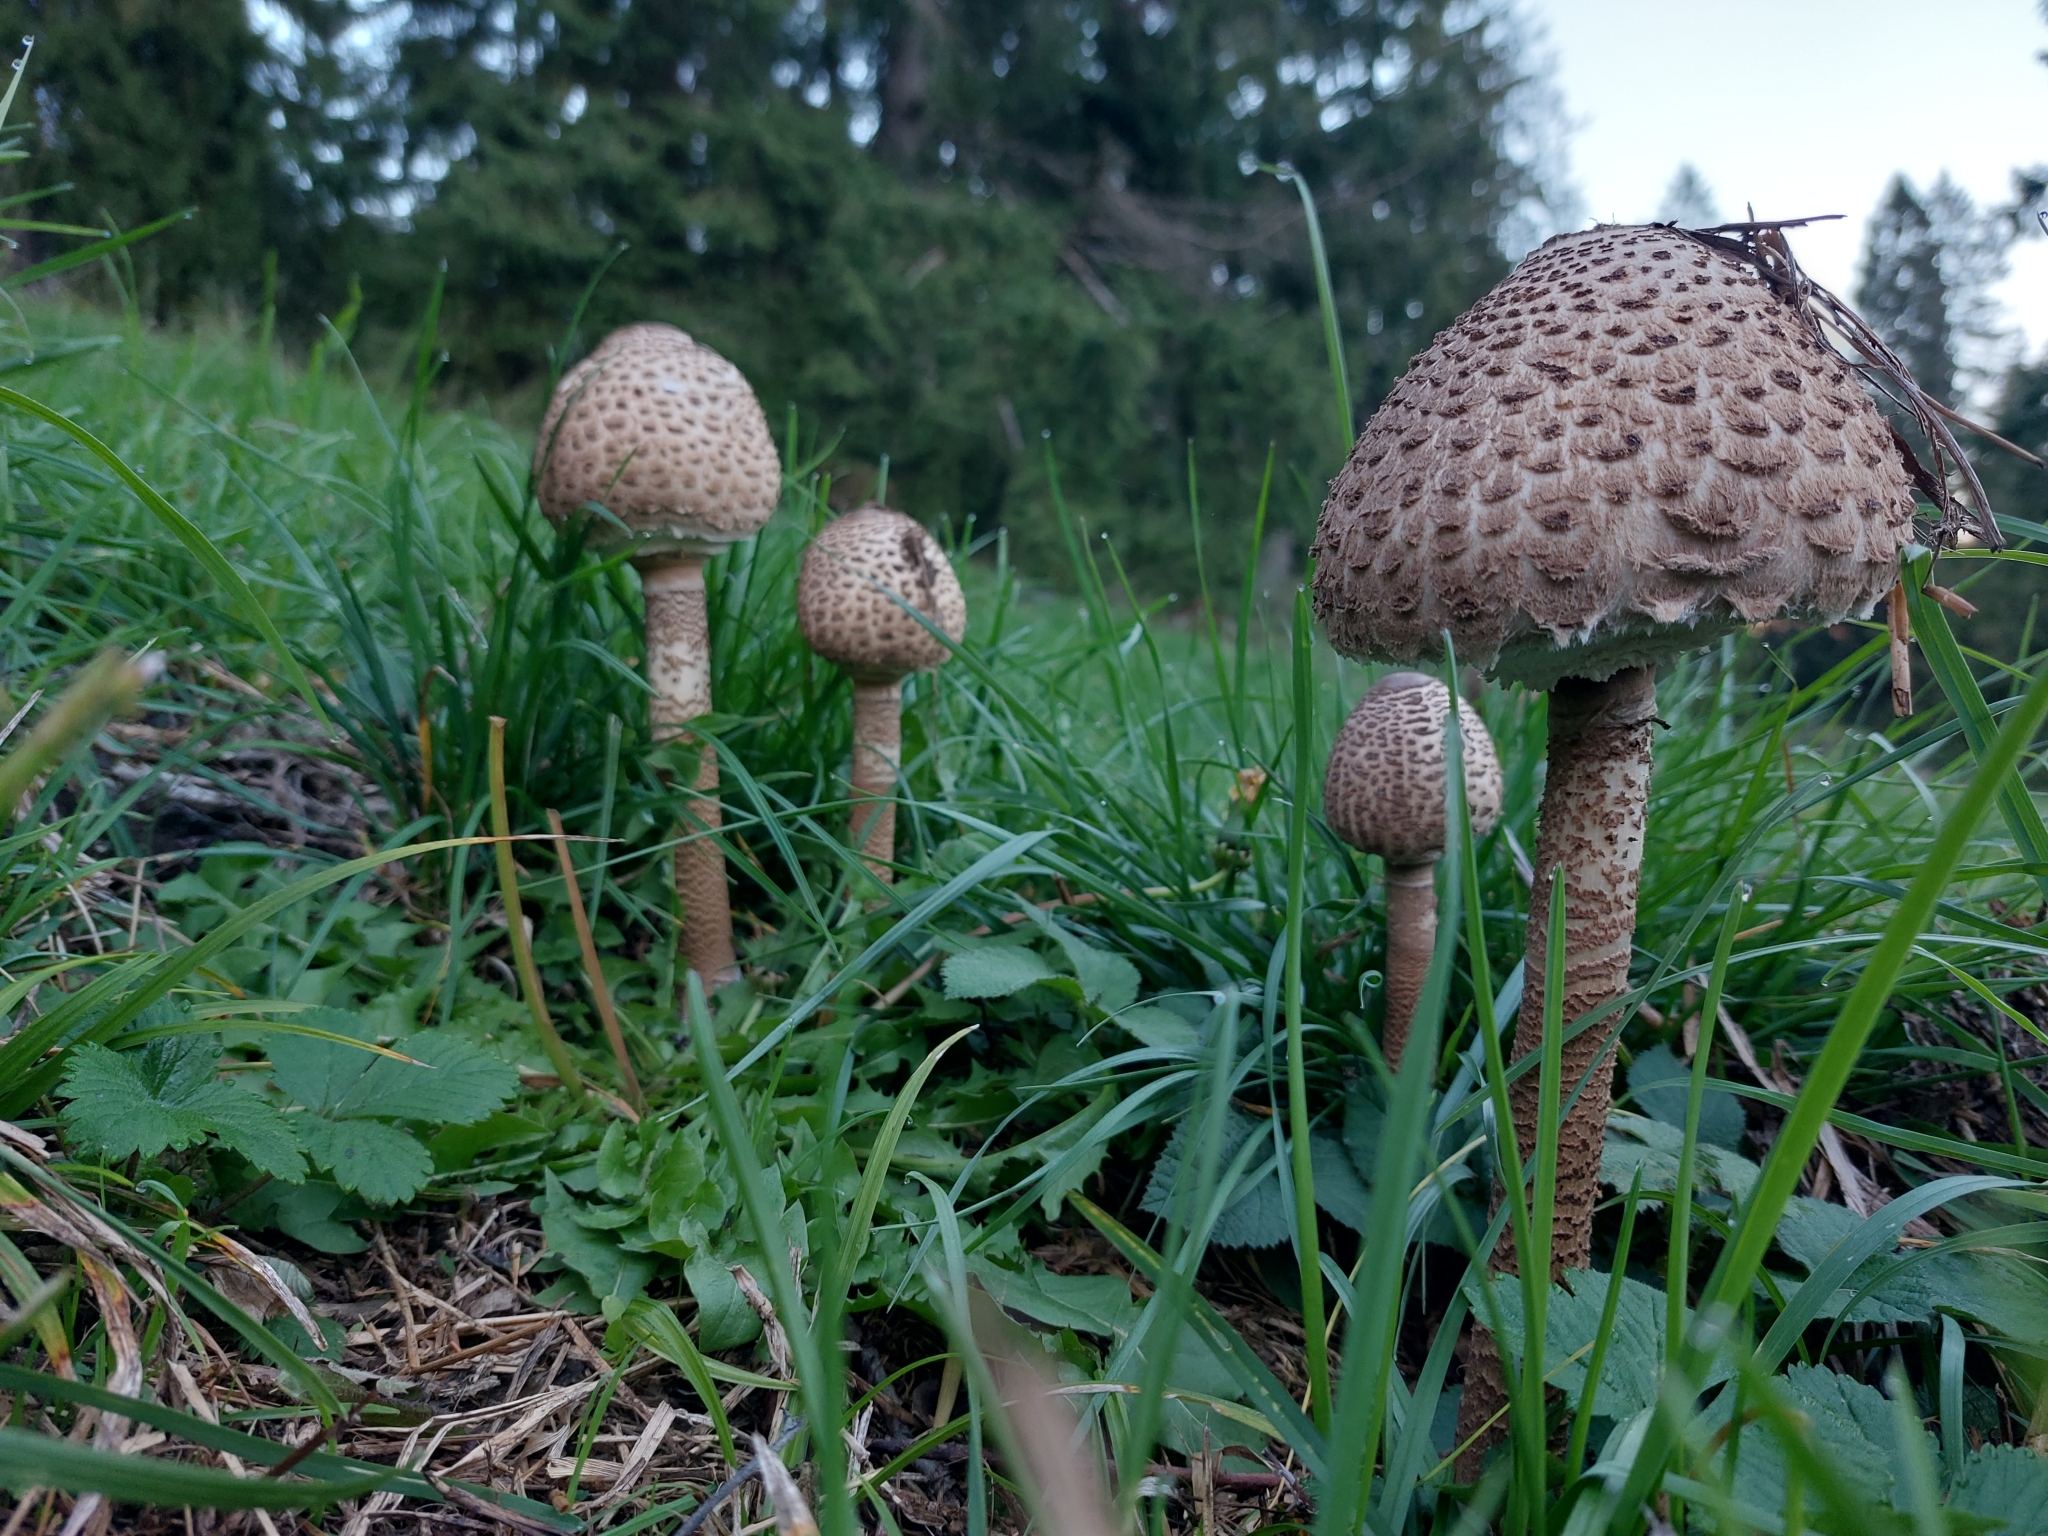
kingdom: Fungi
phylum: Basidiomycota
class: Agaricomycetes
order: Agaricales
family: Agaricaceae
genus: Macrolepiota
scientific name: Macrolepiota procera
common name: Parasol
